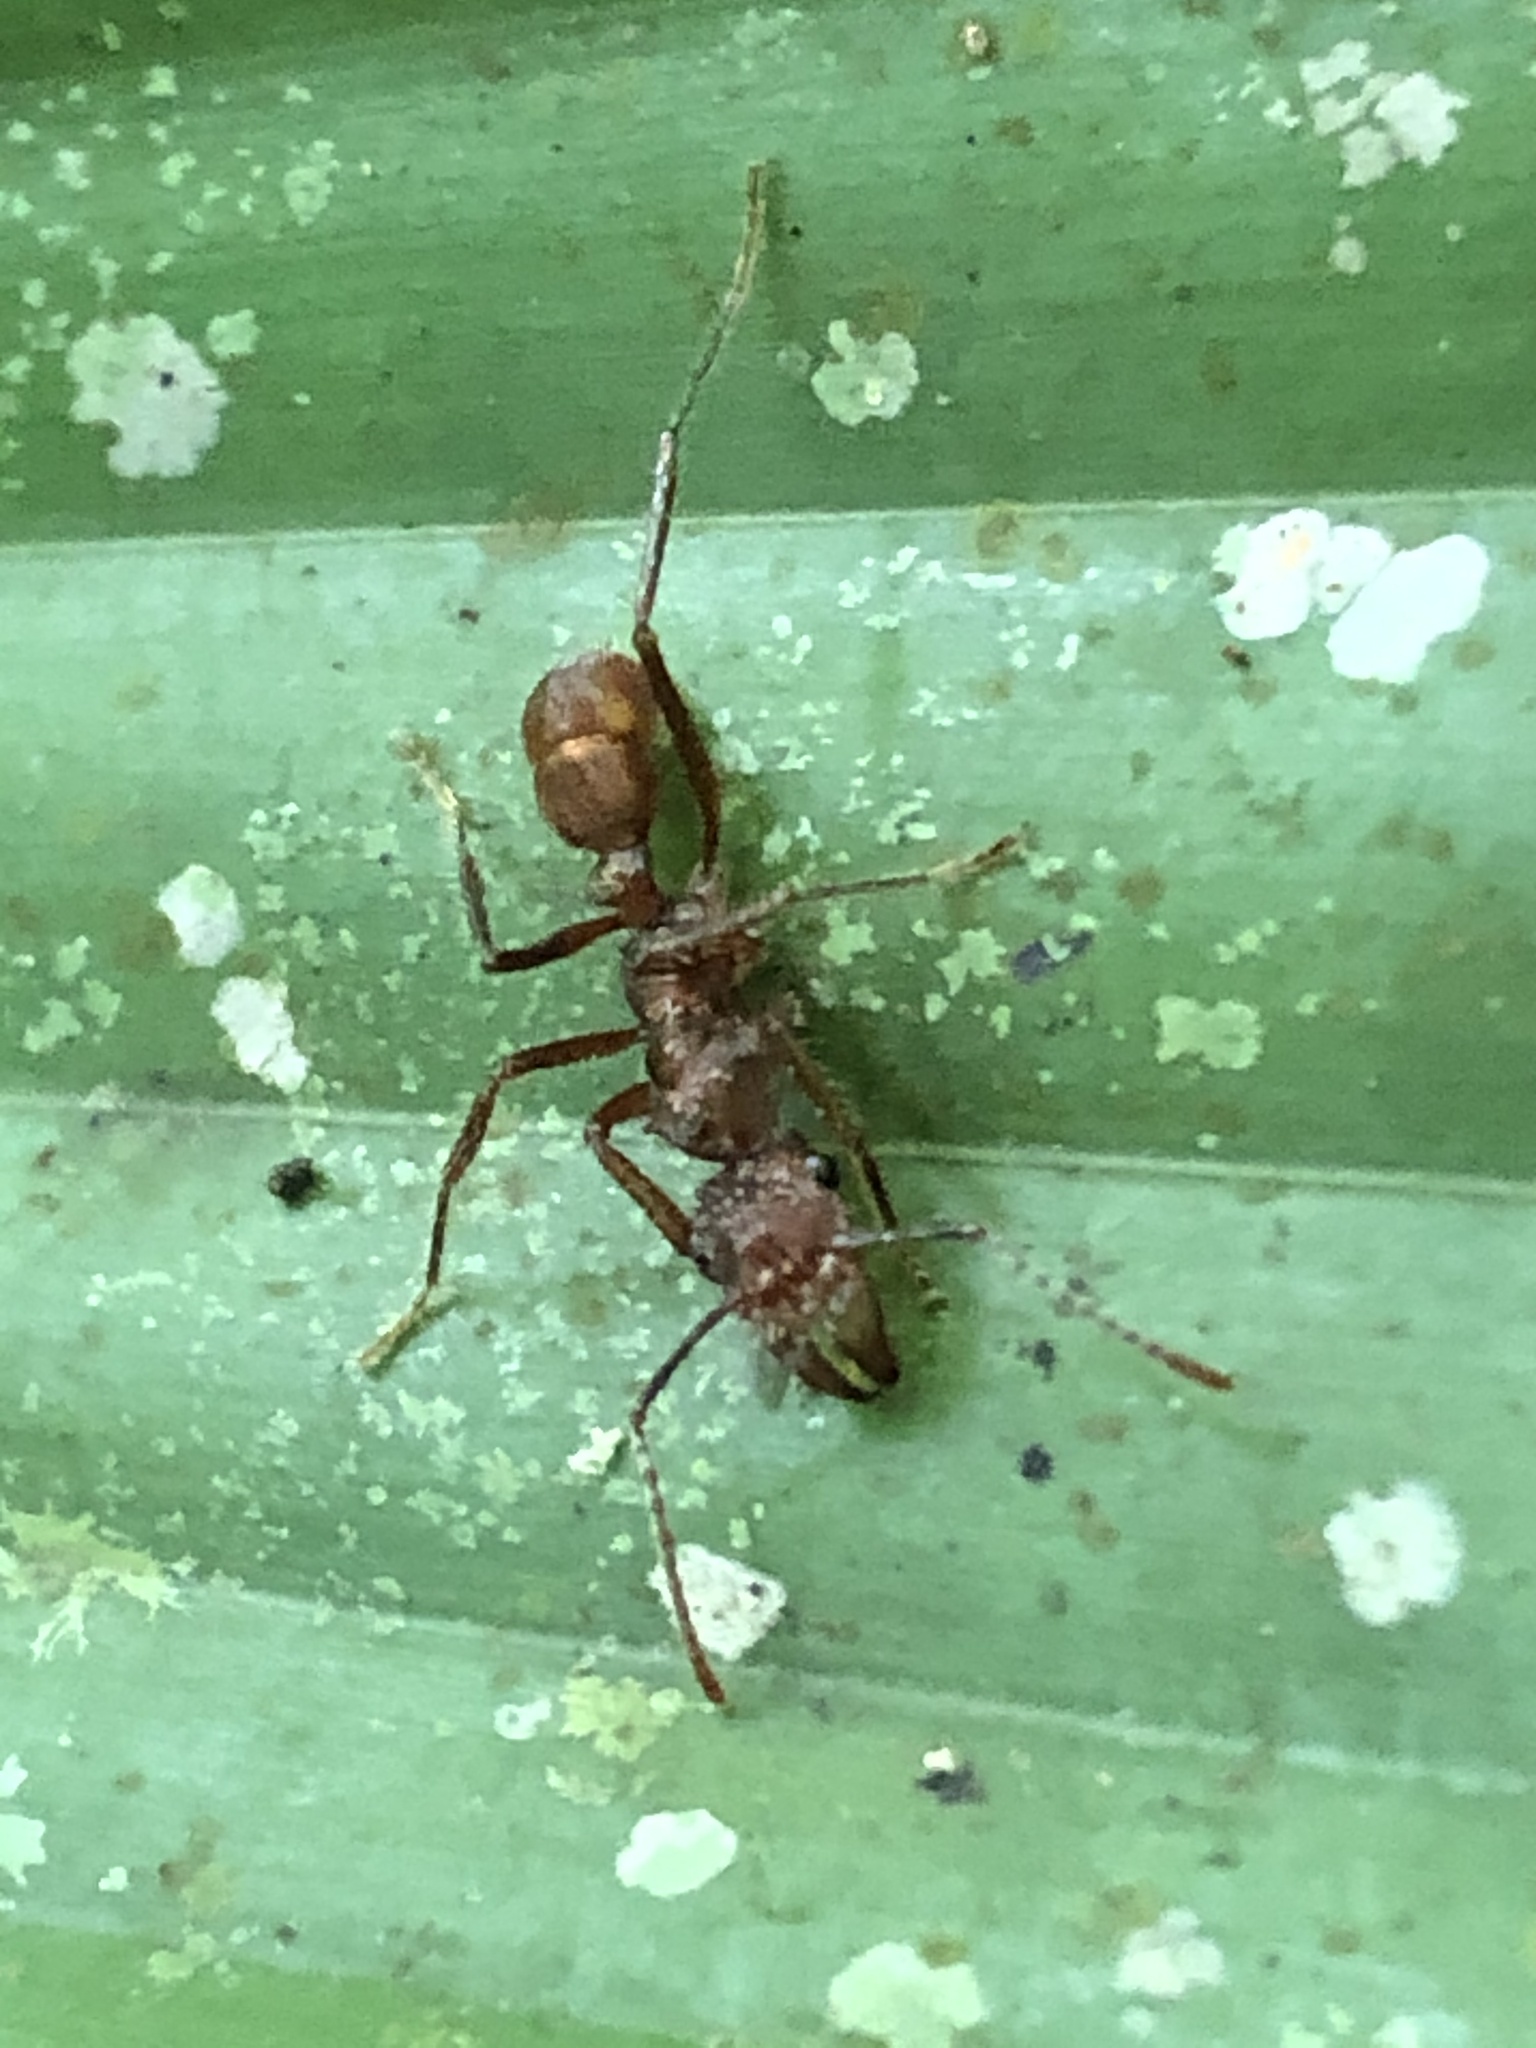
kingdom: Animalia
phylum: Arthropoda
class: Insecta
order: Hymenoptera
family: Formicidae
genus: Ectatomma
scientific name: Ectatomma tuberculatum
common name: Ant
